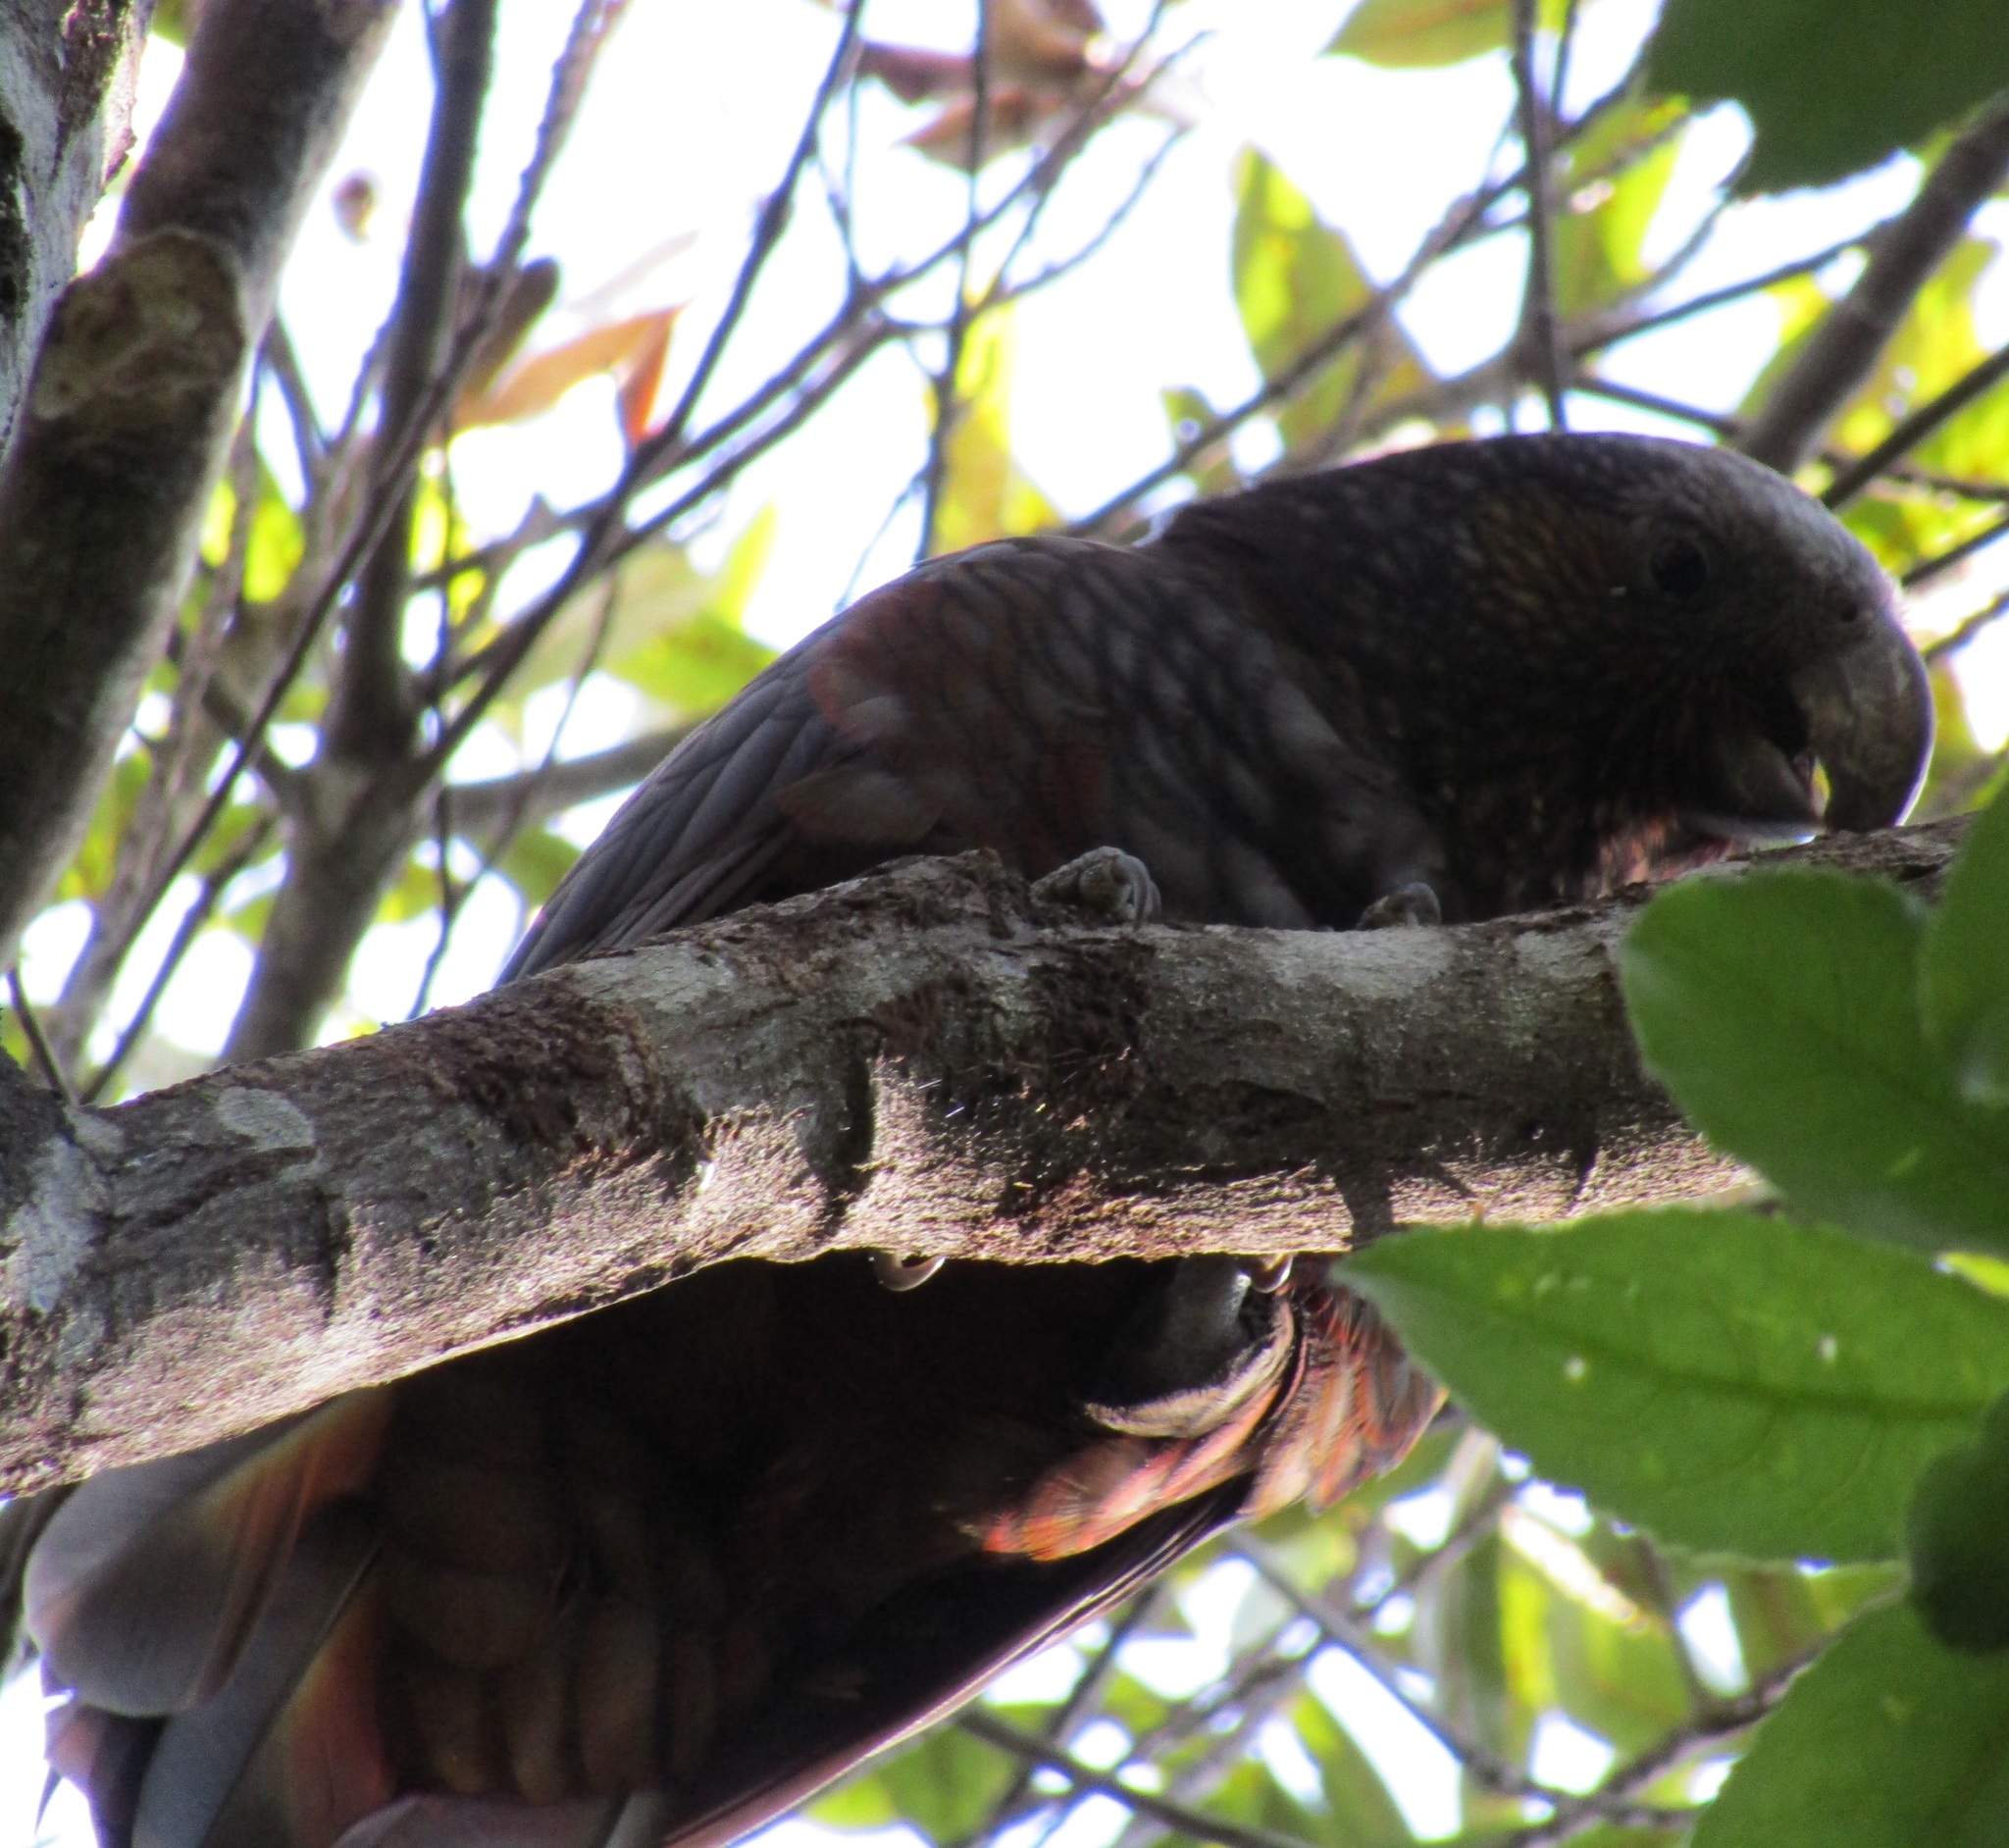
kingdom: Animalia
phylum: Chordata
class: Aves
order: Psittaciformes
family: Psittacidae
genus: Nestor
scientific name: Nestor meridionalis
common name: New zealand kaka
